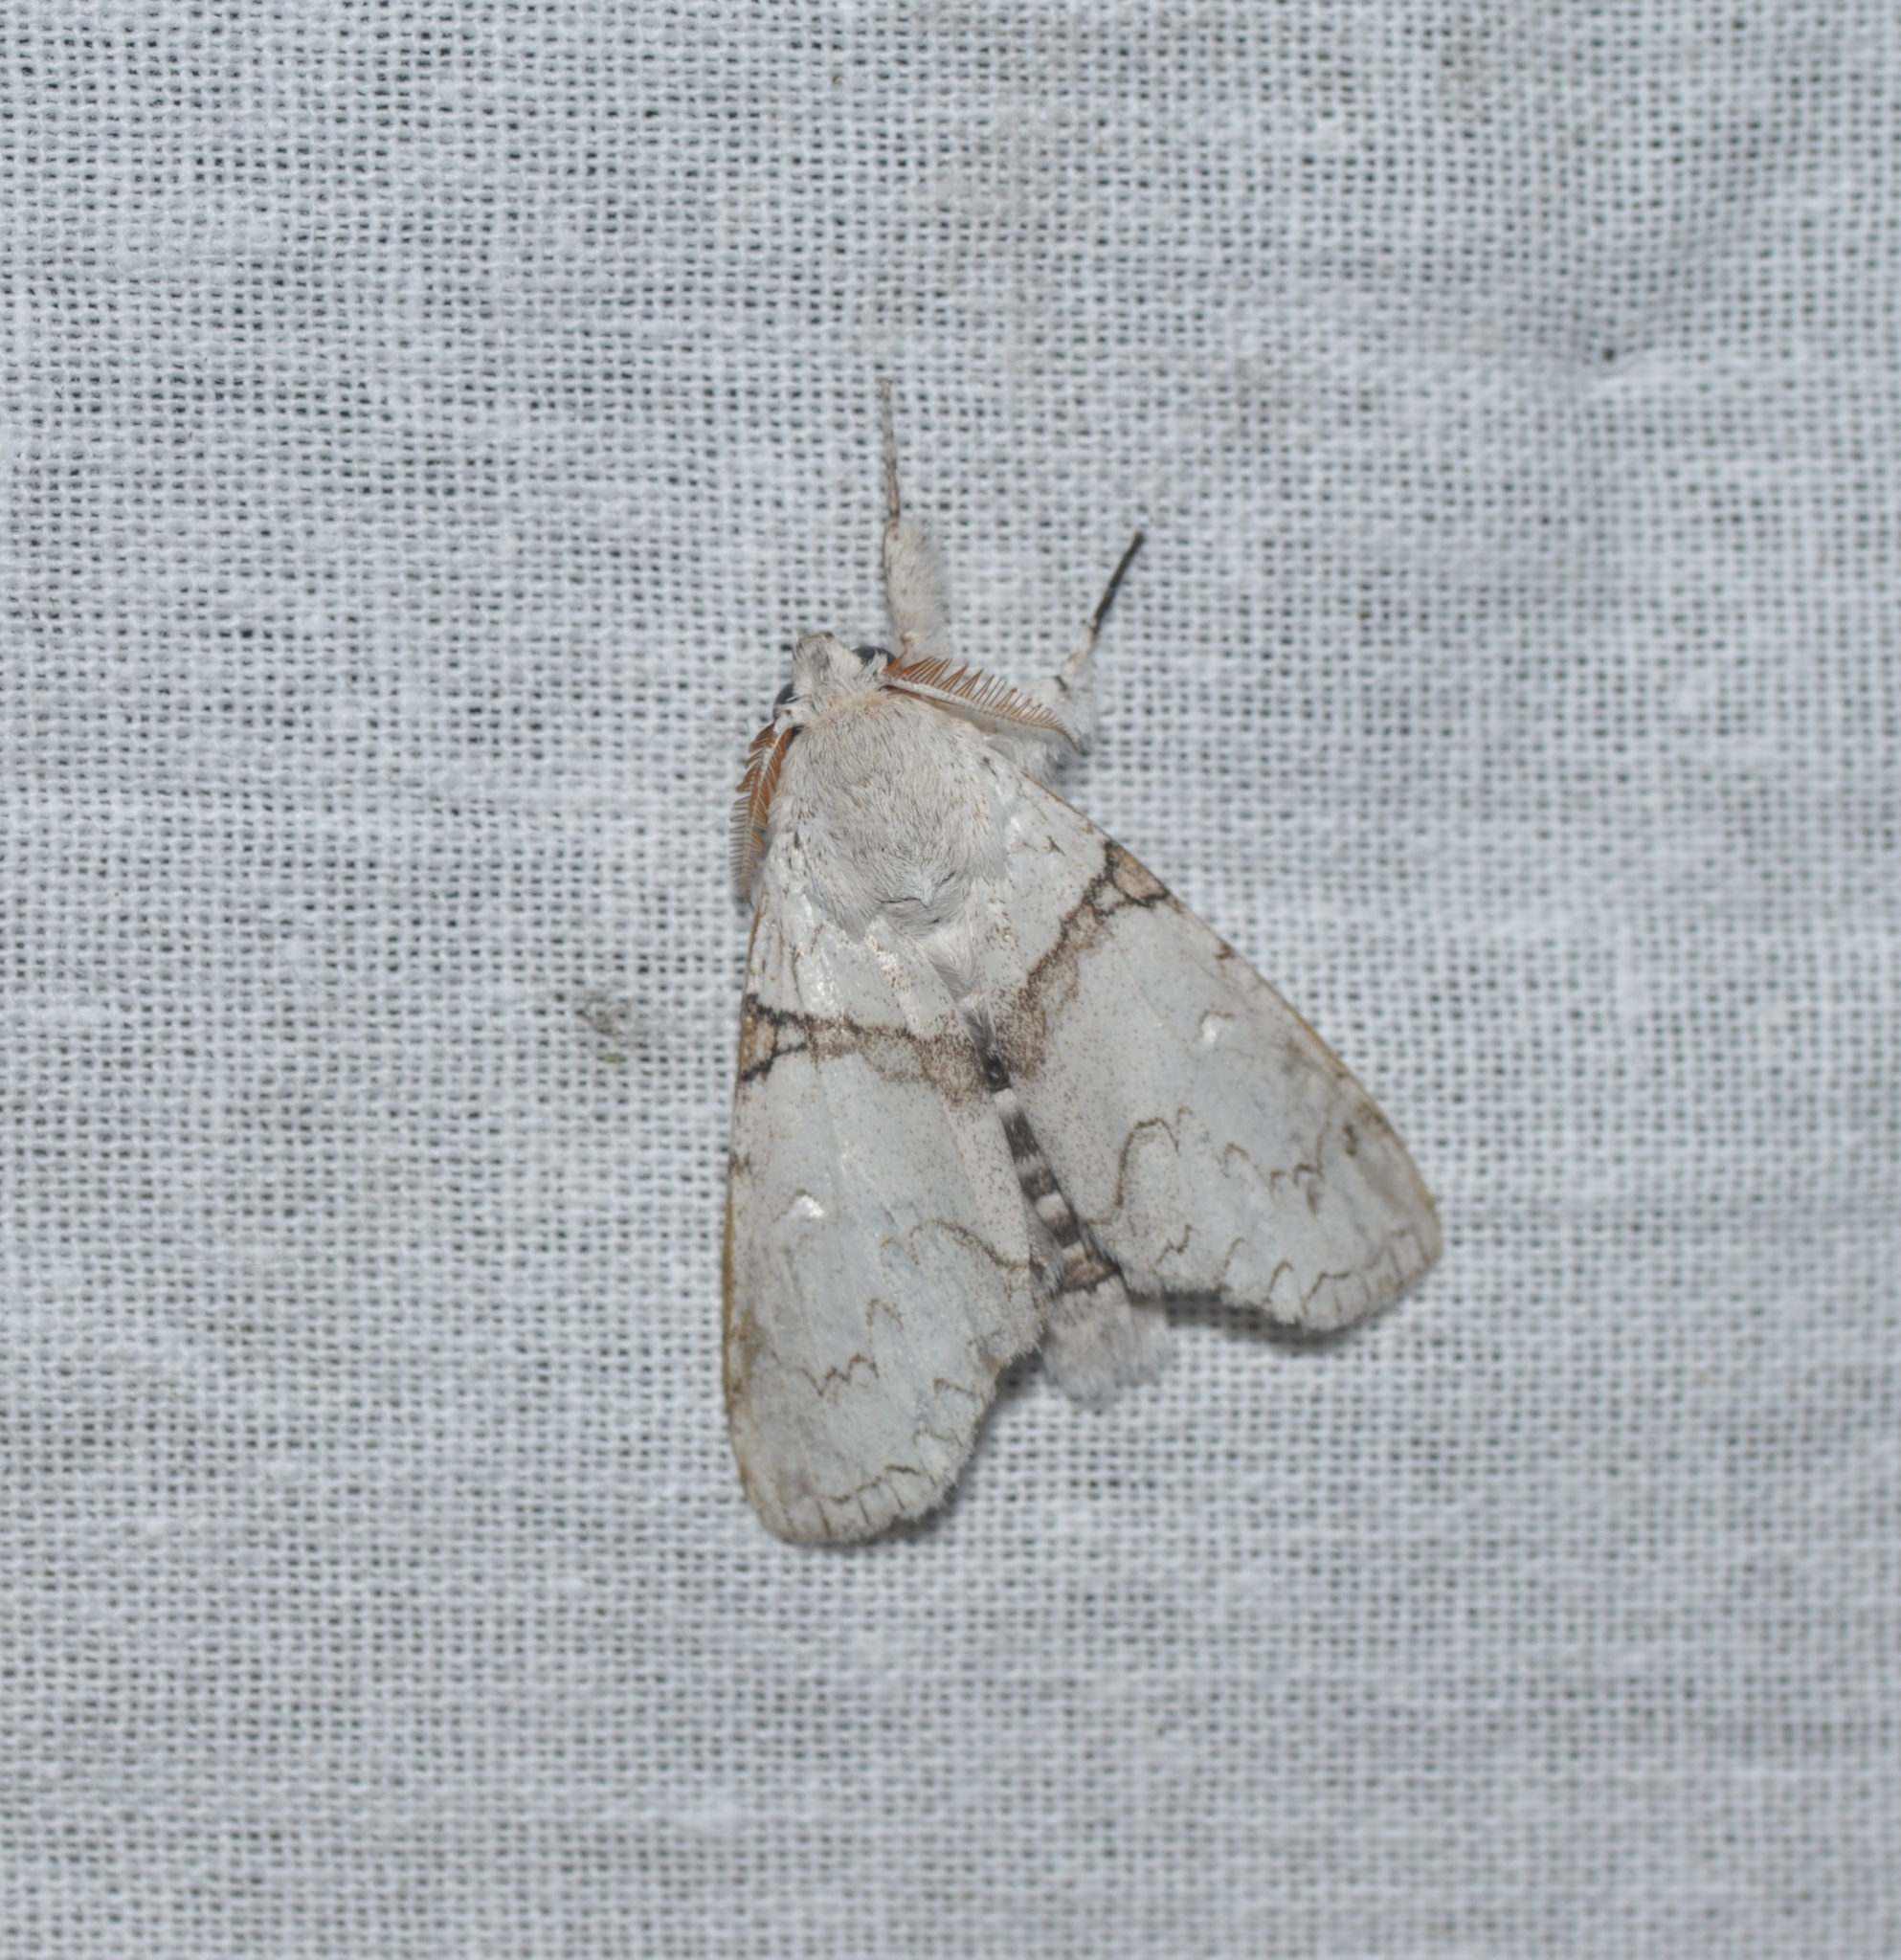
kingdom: Animalia
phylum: Arthropoda
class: Insecta
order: Lepidoptera
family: Erebidae
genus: Calliteara
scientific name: Calliteara diplozona
